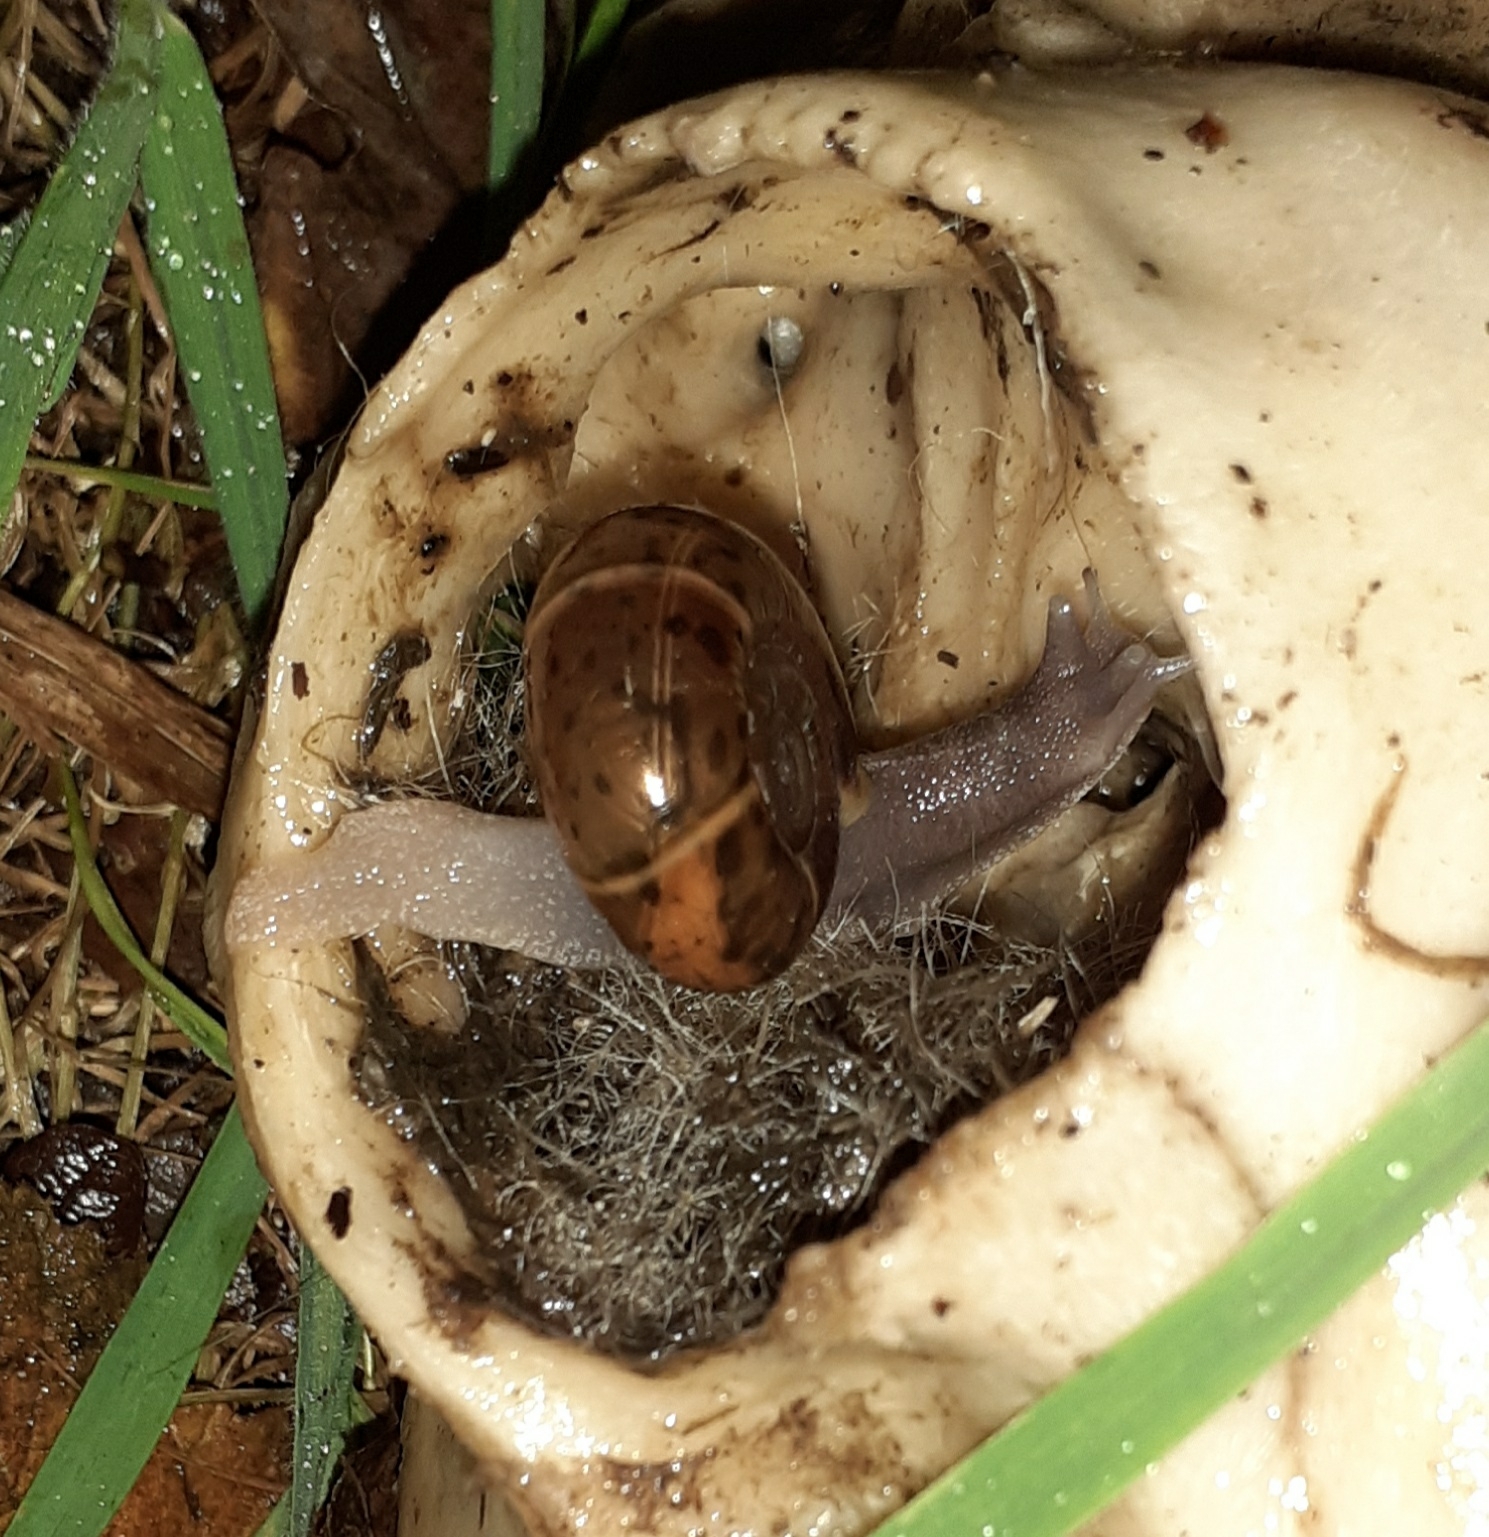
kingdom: Animalia
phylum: Mollusca
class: Gastropoda
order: Stylommatophora
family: Elonidae
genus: Elona
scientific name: Elona quimperiana
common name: Quimper snail
